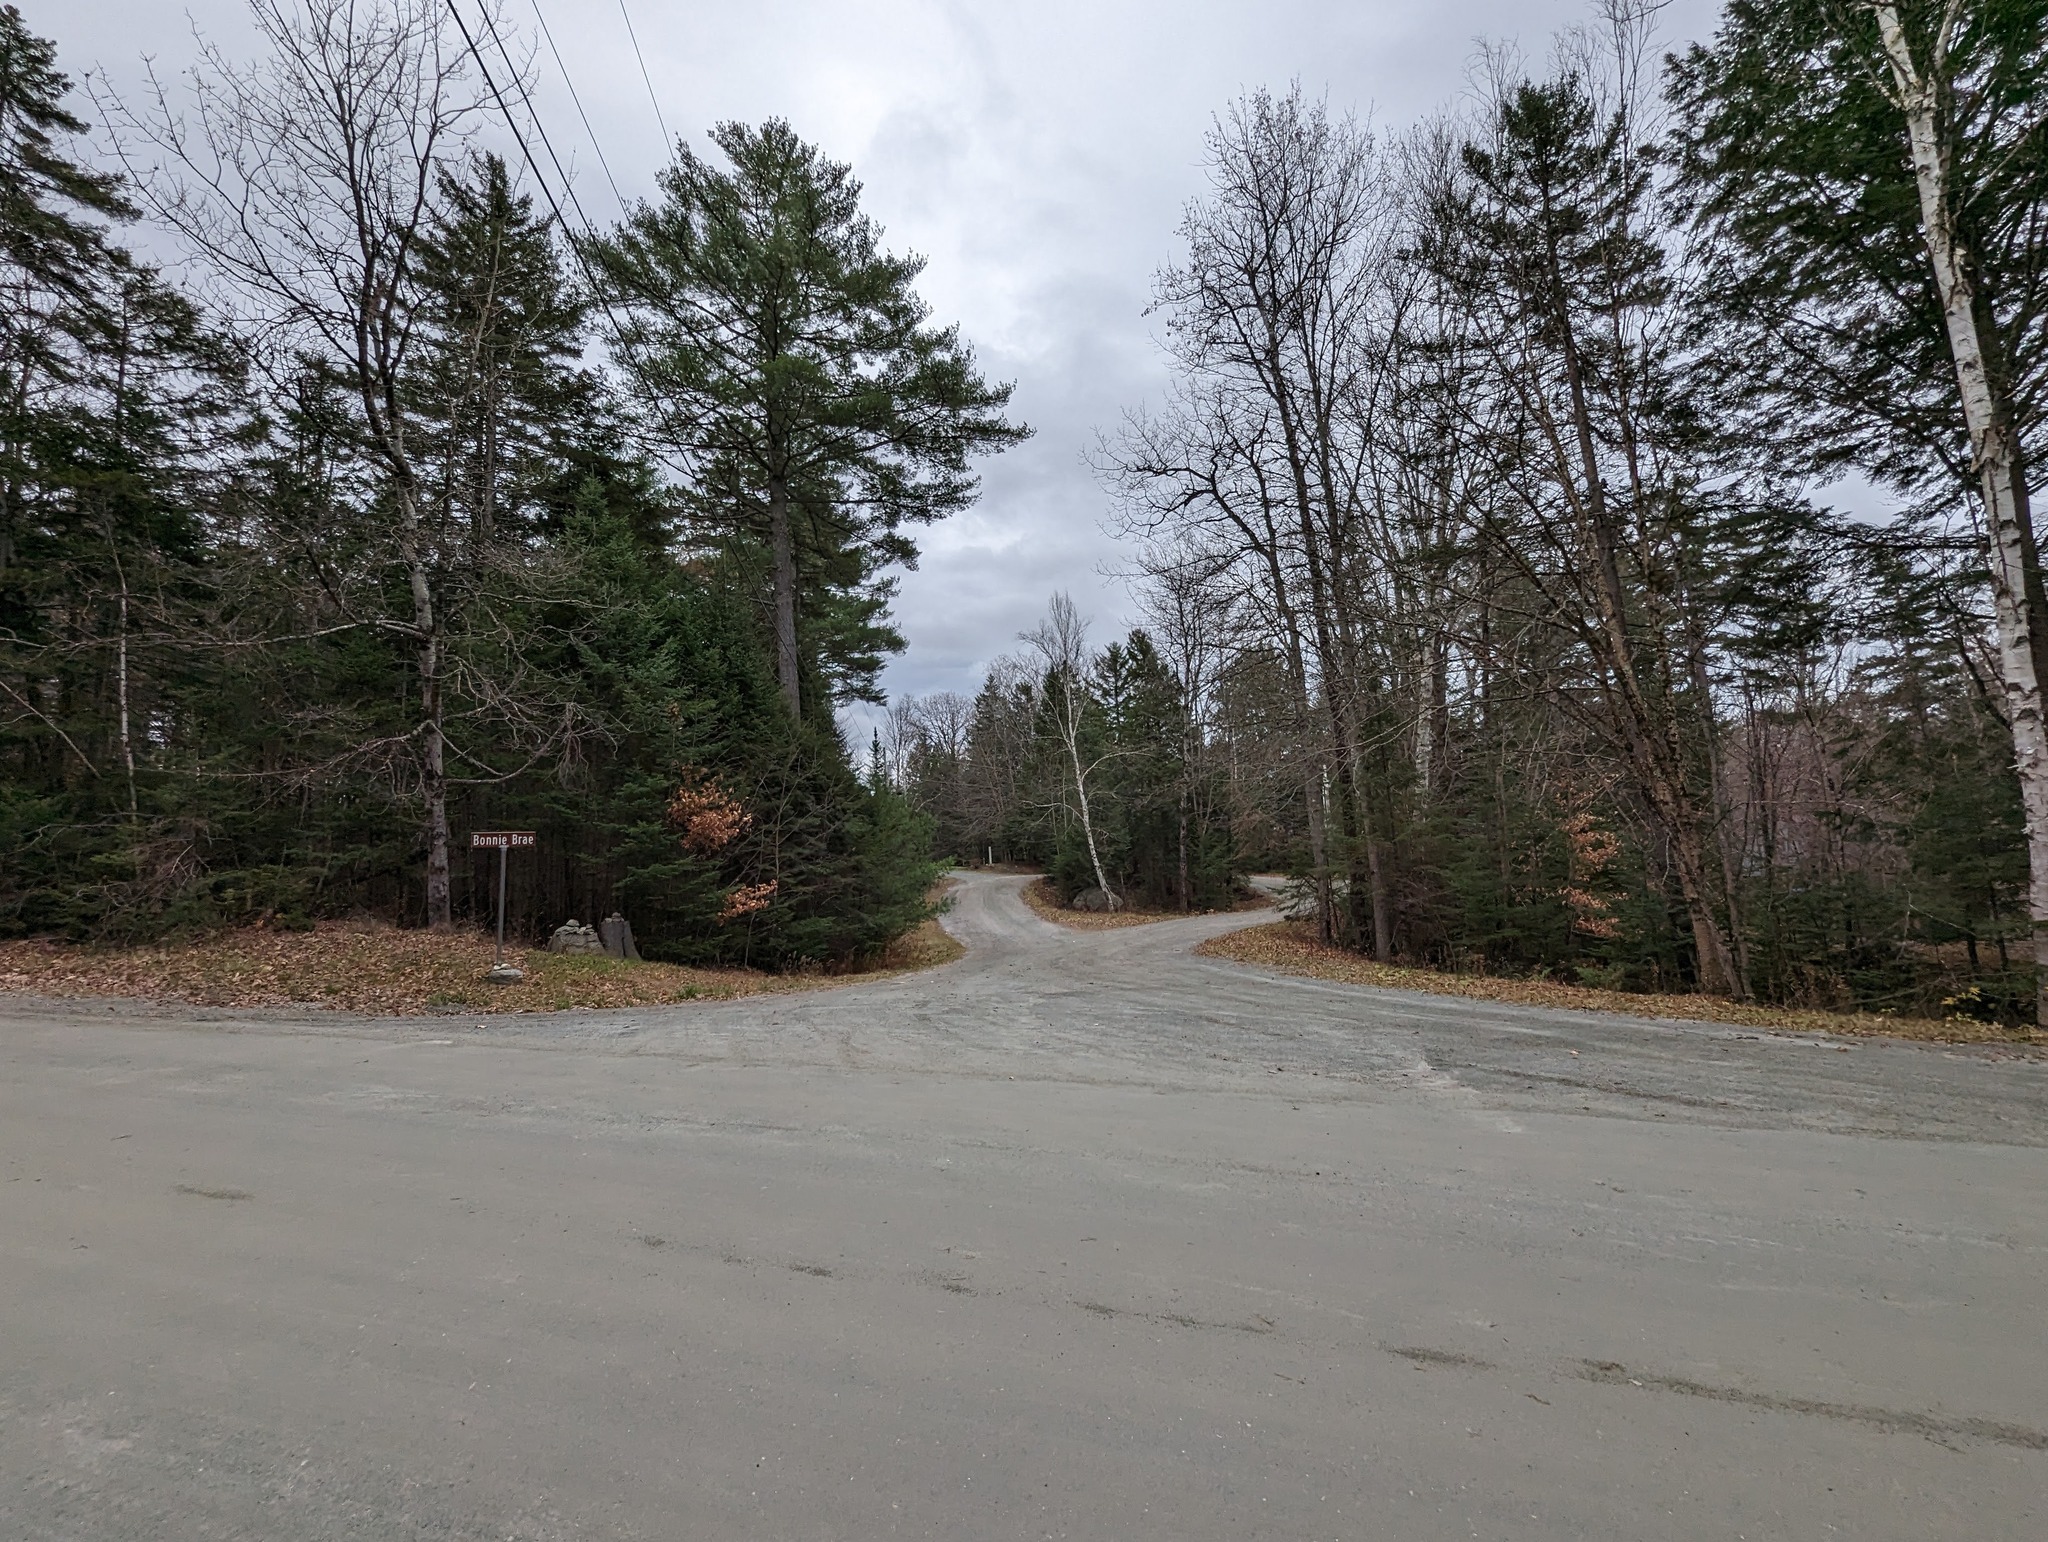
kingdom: Plantae
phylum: Tracheophyta
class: Pinopsida
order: Pinales
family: Pinaceae
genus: Pinus
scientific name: Pinus strobus
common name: Weymouth pine
